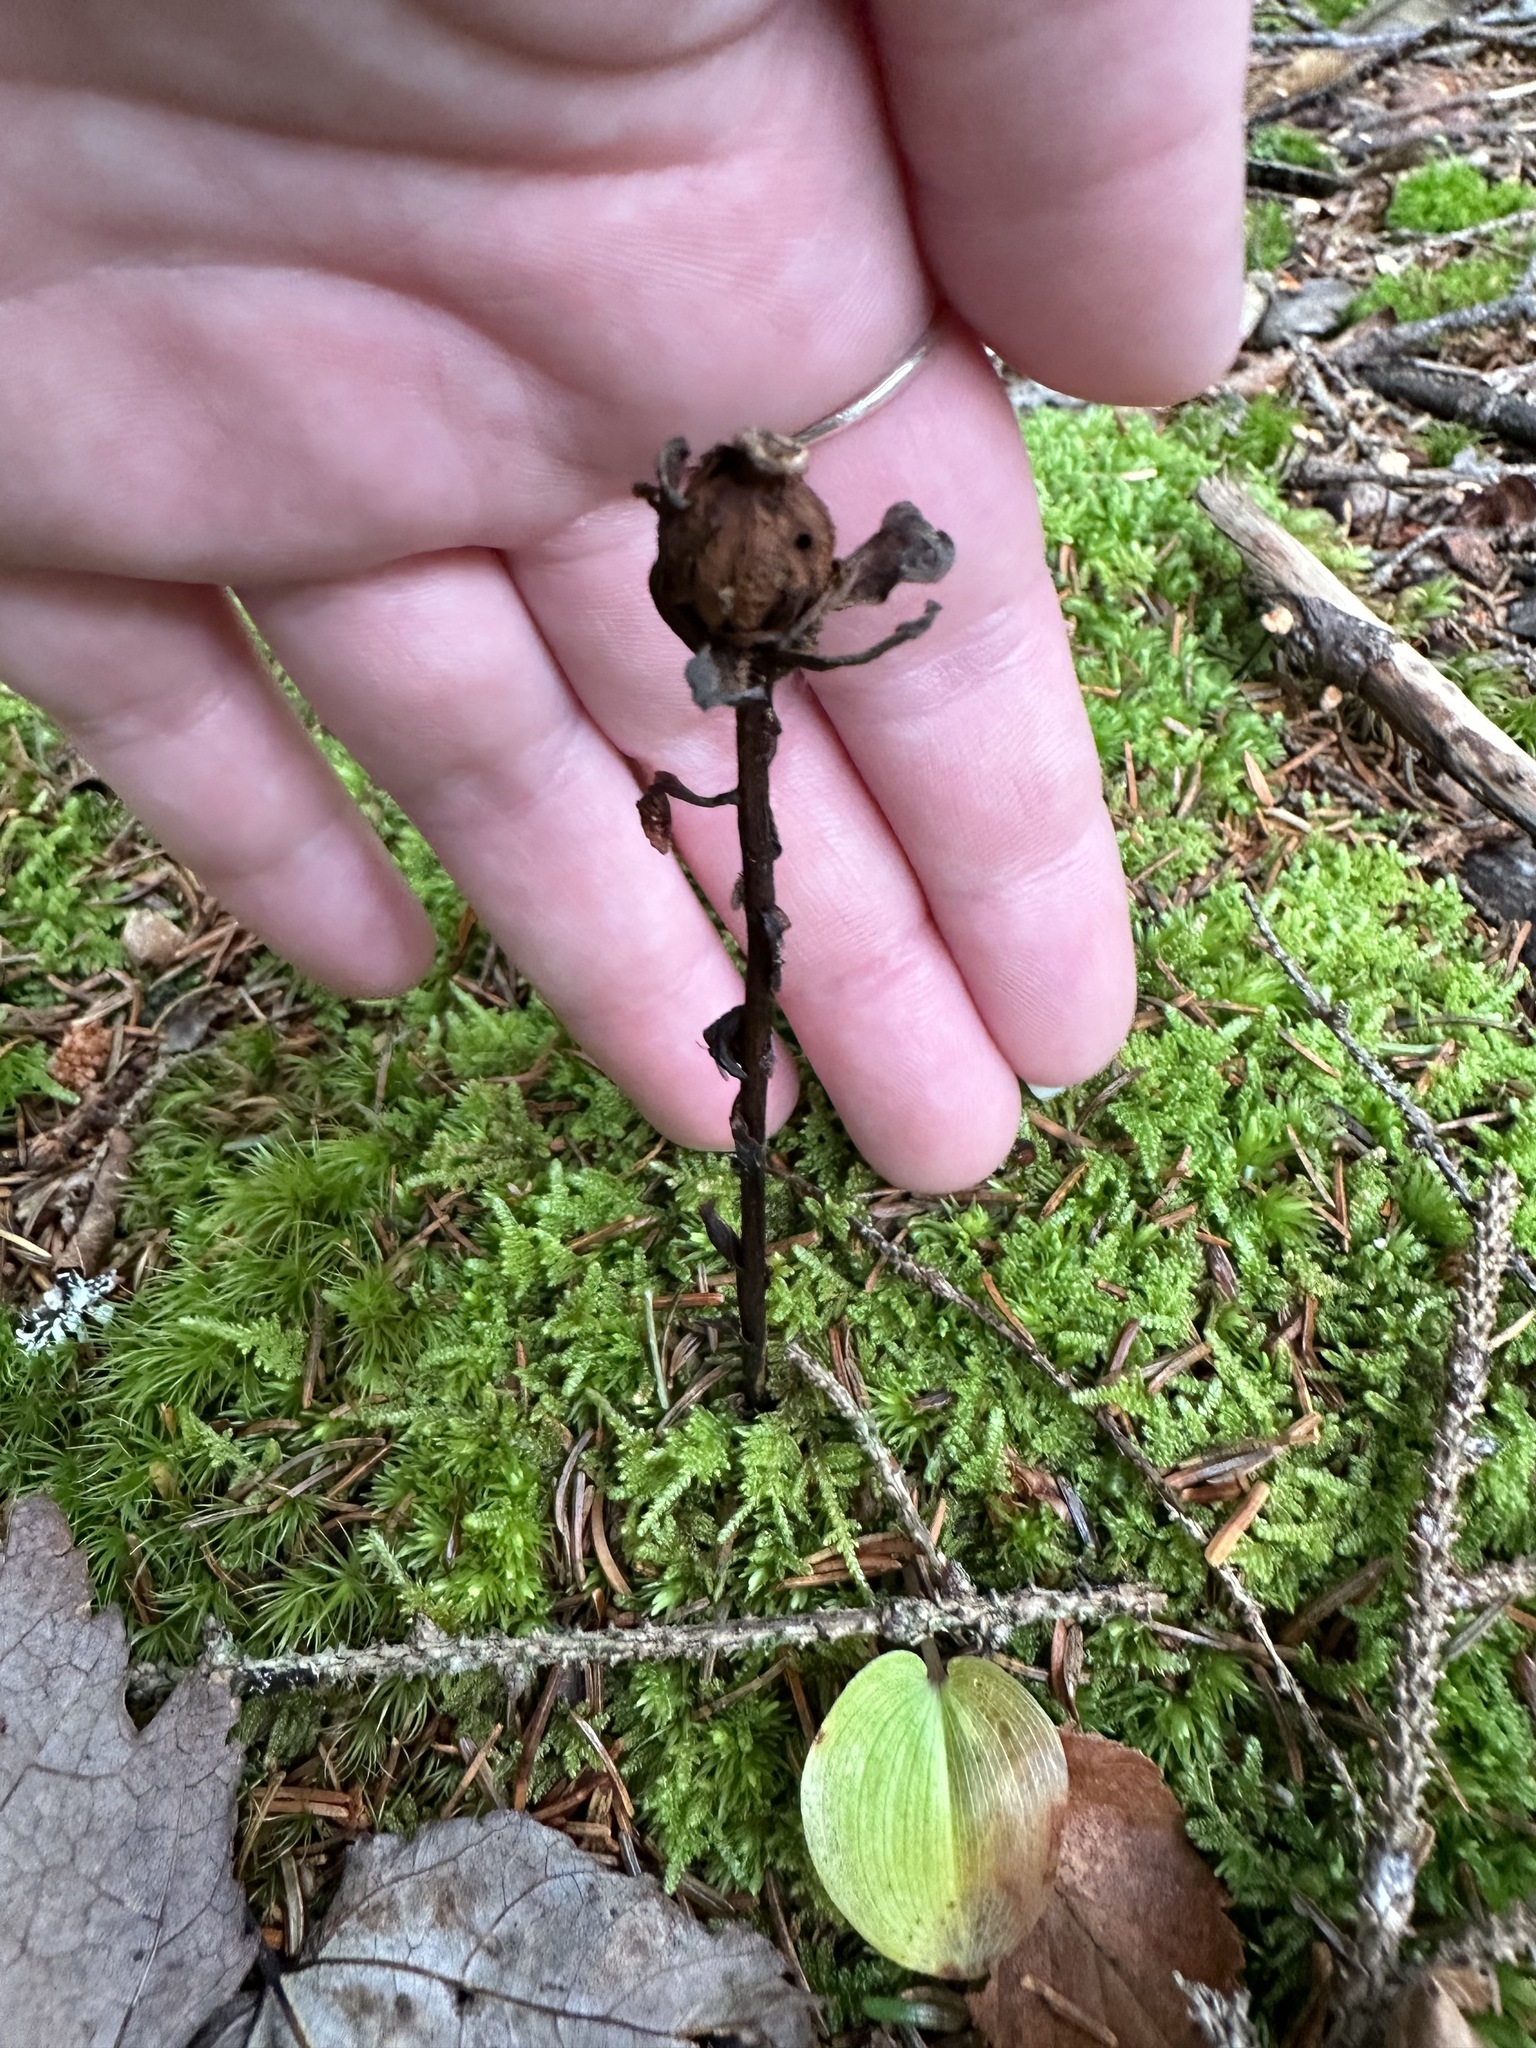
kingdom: Plantae
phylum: Tracheophyta
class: Magnoliopsida
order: Ericales
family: Ericaceae
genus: Monotropa
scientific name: Monotropa uniflora
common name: Convulsion root
